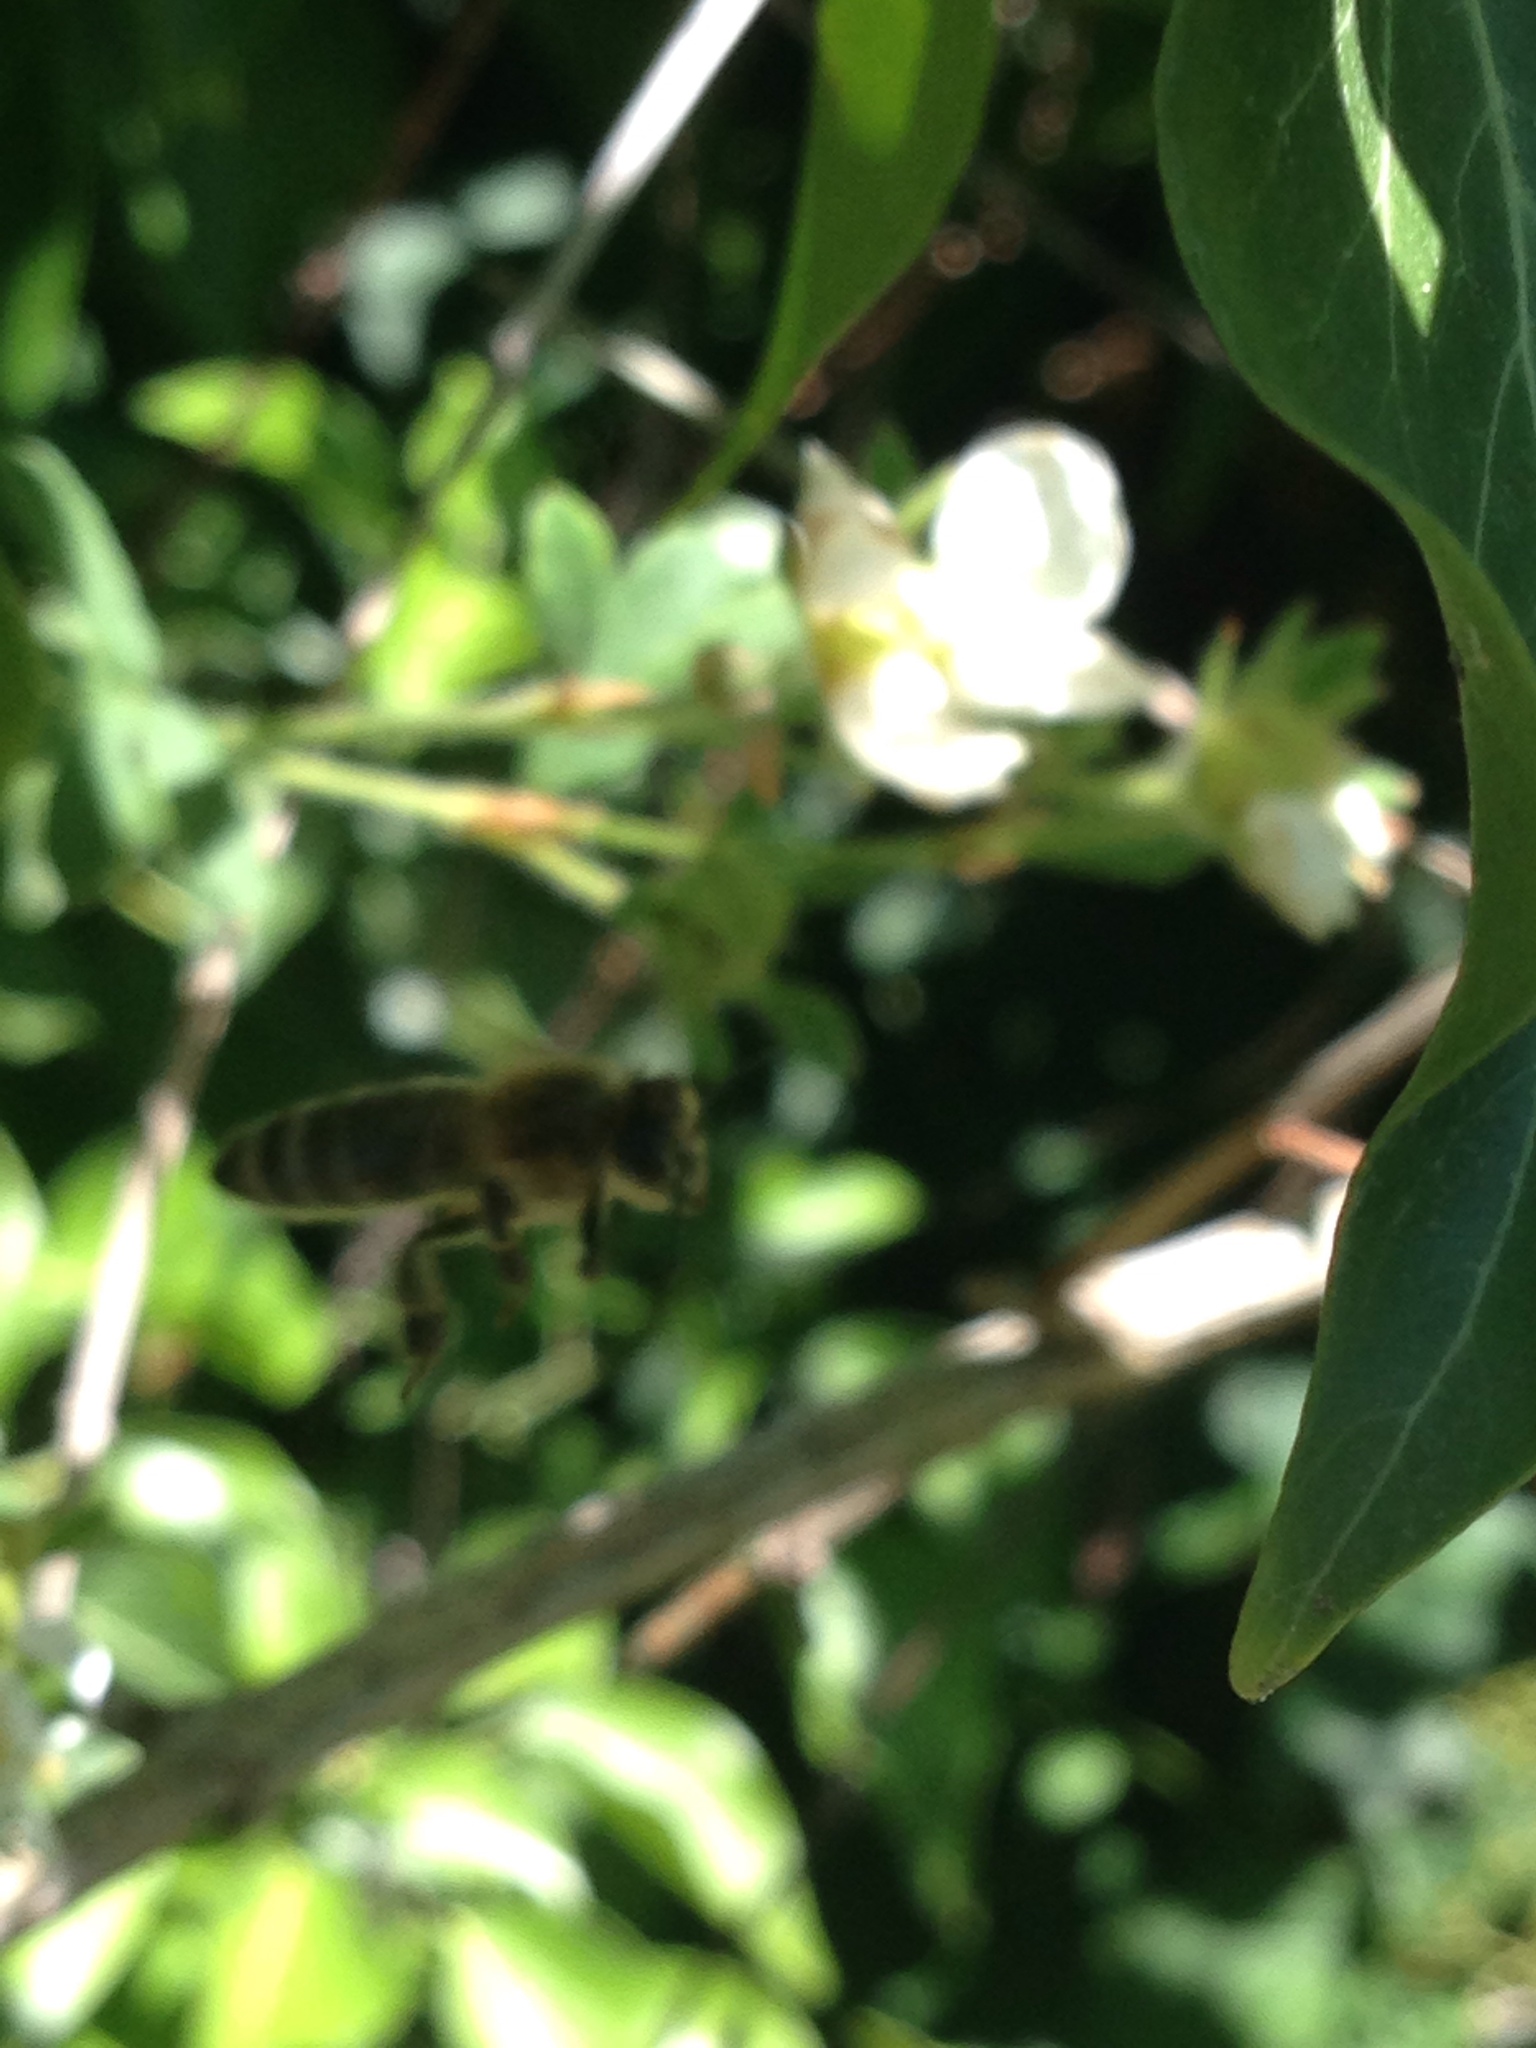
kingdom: Animalia
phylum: Arthropoda
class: Insecta
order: Hymenoptera
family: Apidae
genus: Apis
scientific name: Apis mellifera
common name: Honey bee
